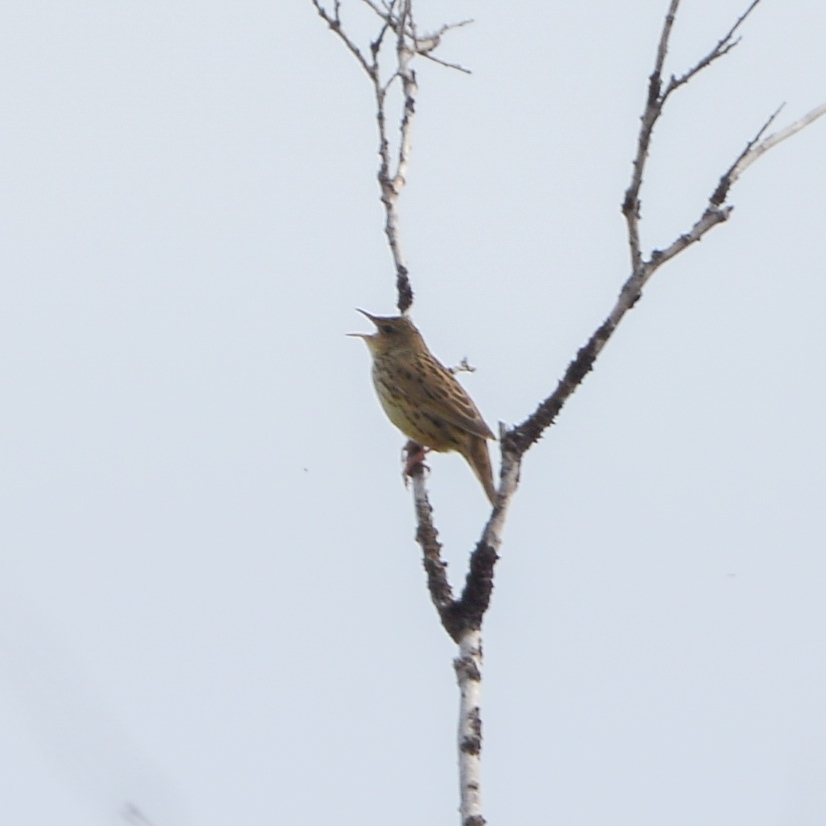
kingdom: Animalia
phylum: Chordata
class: Aves
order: Passeriformes
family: Locustellidae
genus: Locustella
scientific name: Locustella lanceolata
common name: Lanceolated warbler
